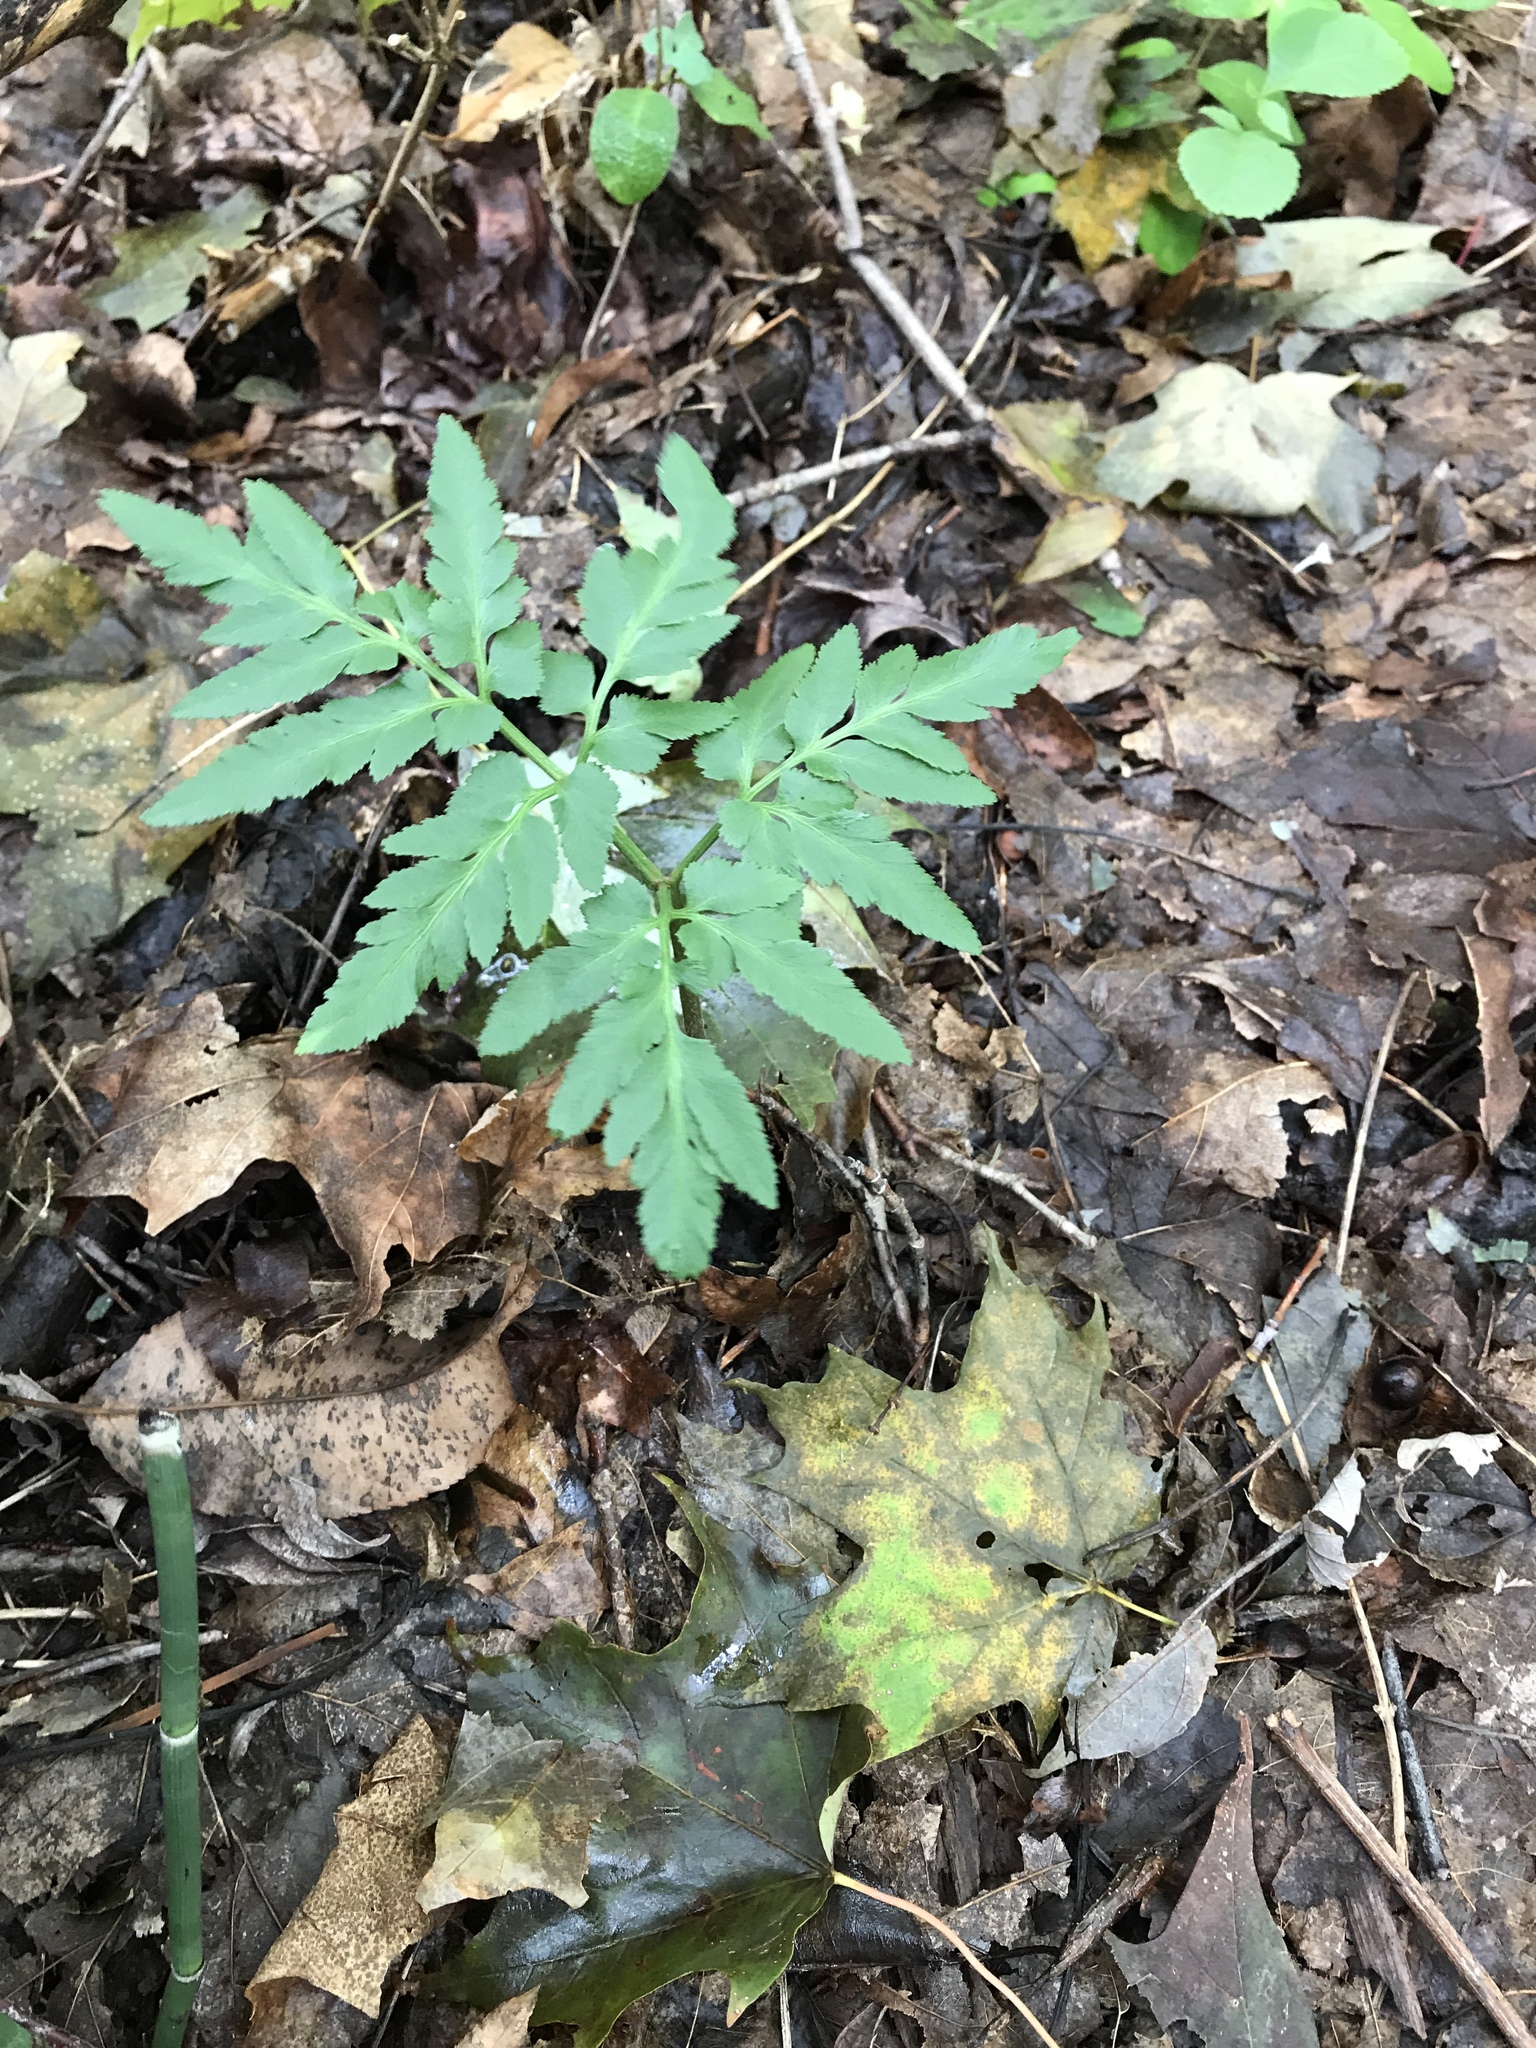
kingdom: Plantae
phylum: Tracheophyta
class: Polypodiopsida
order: Ophioglossales
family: Ophioglossaceae
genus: Sceptridium
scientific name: Sceptridium dissectum
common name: Cut-leaved grapefern
